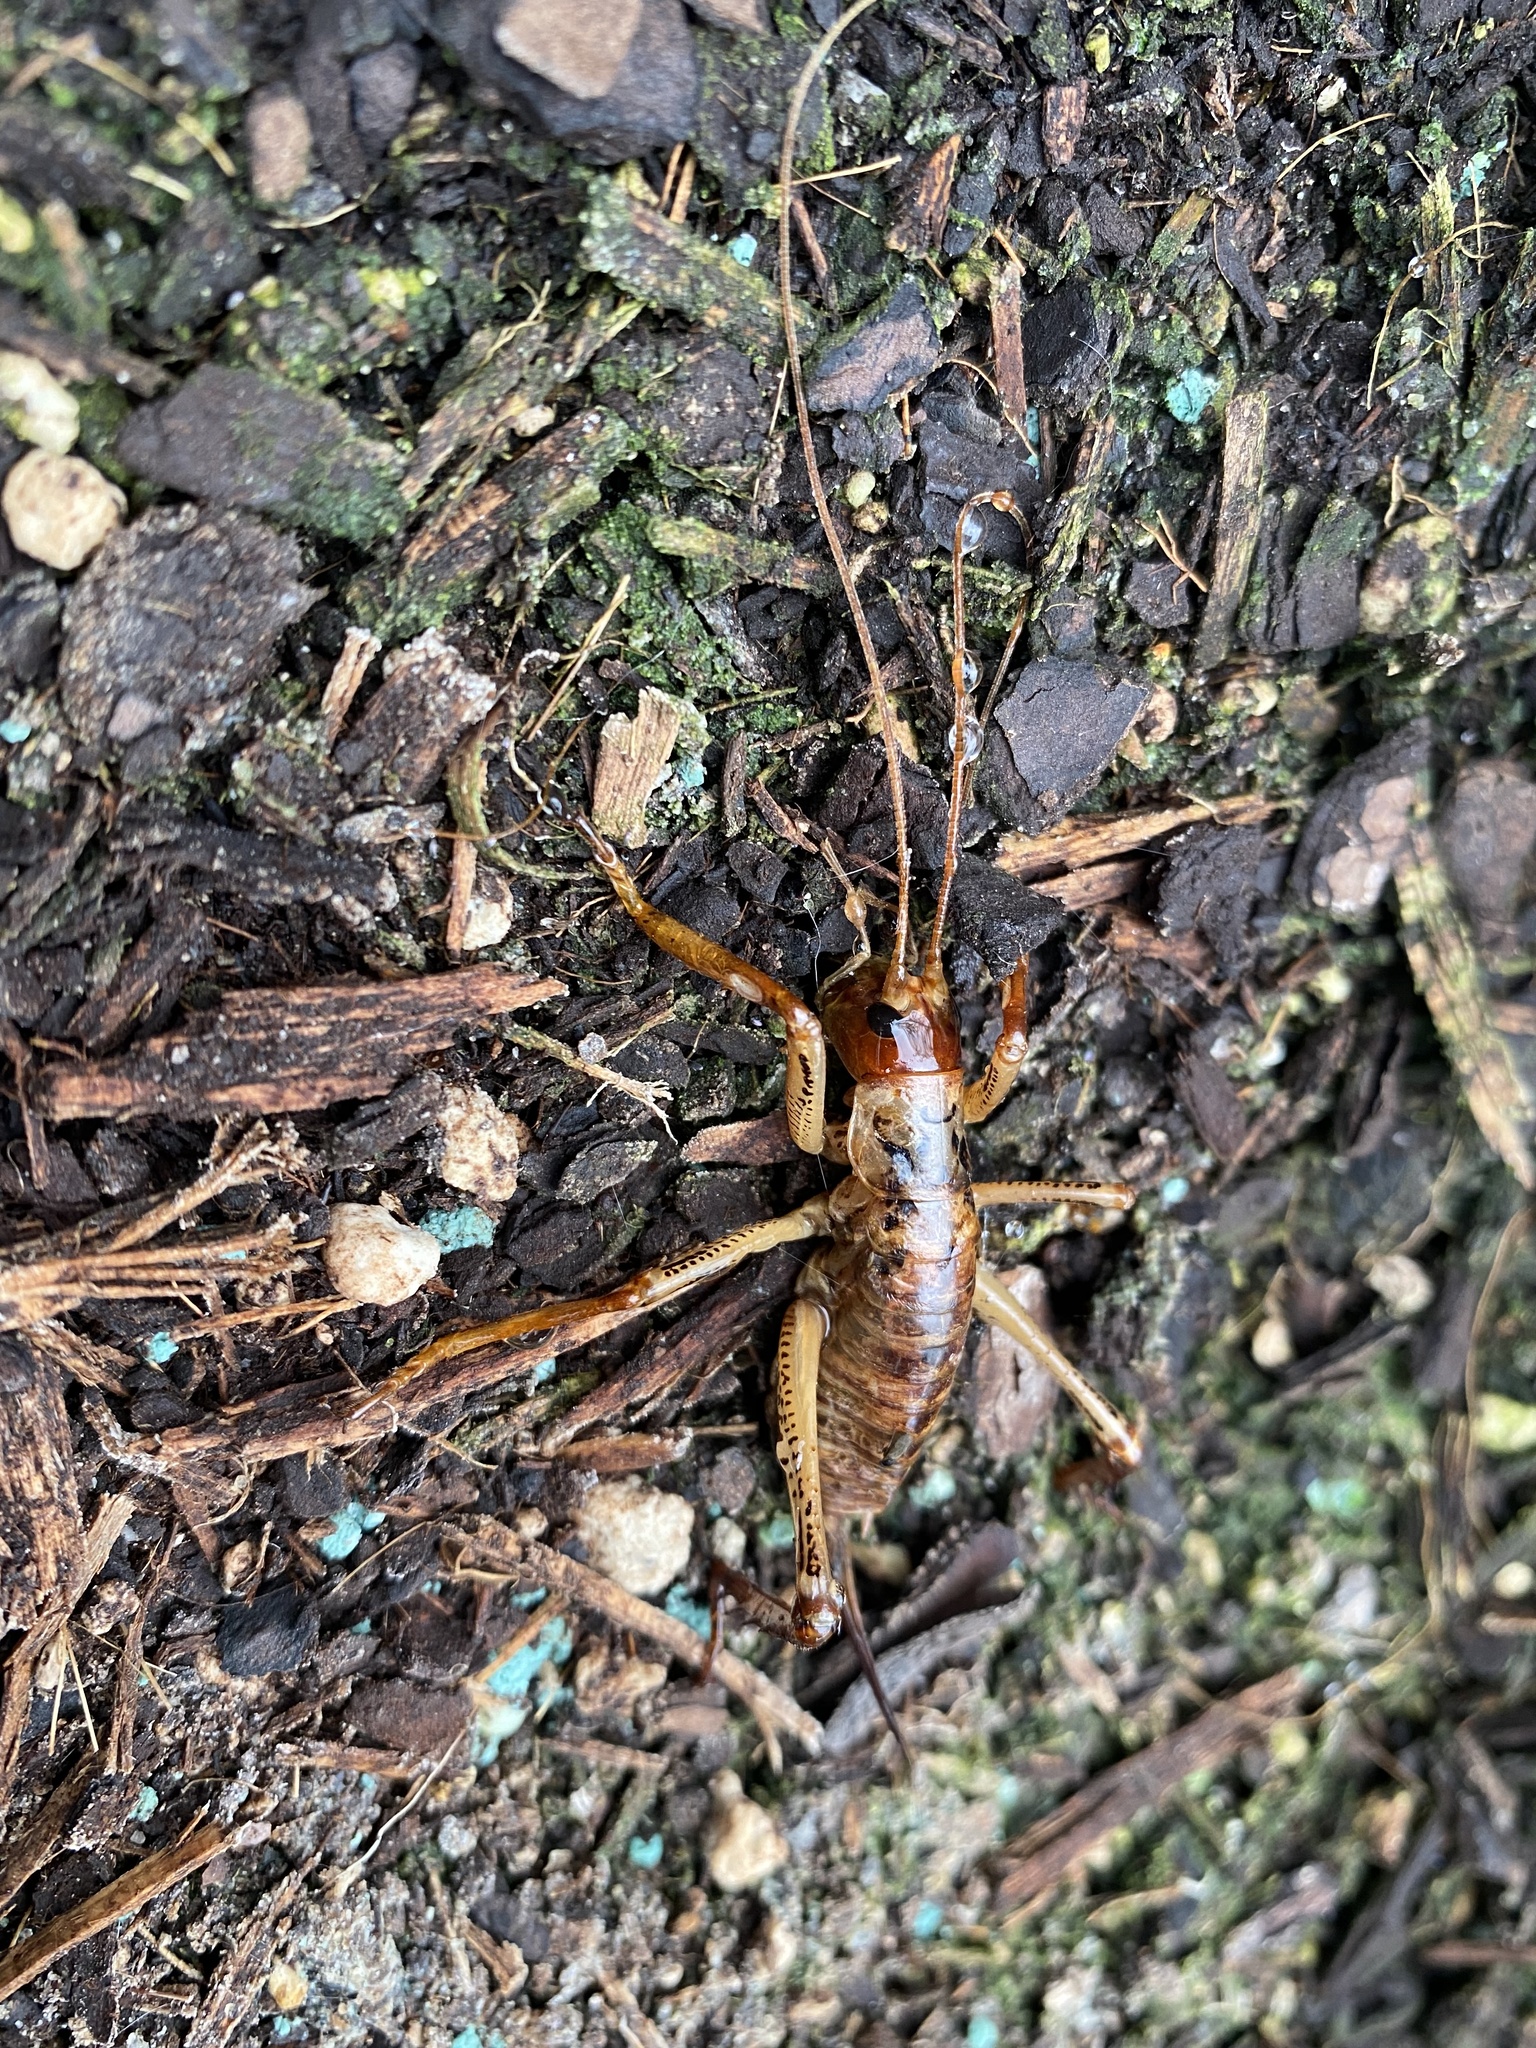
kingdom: Animalia
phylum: Arthropoda
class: Insecta
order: Orthoptera
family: Anostostomatidae
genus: Hemideina
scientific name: Hemideina thoracica
